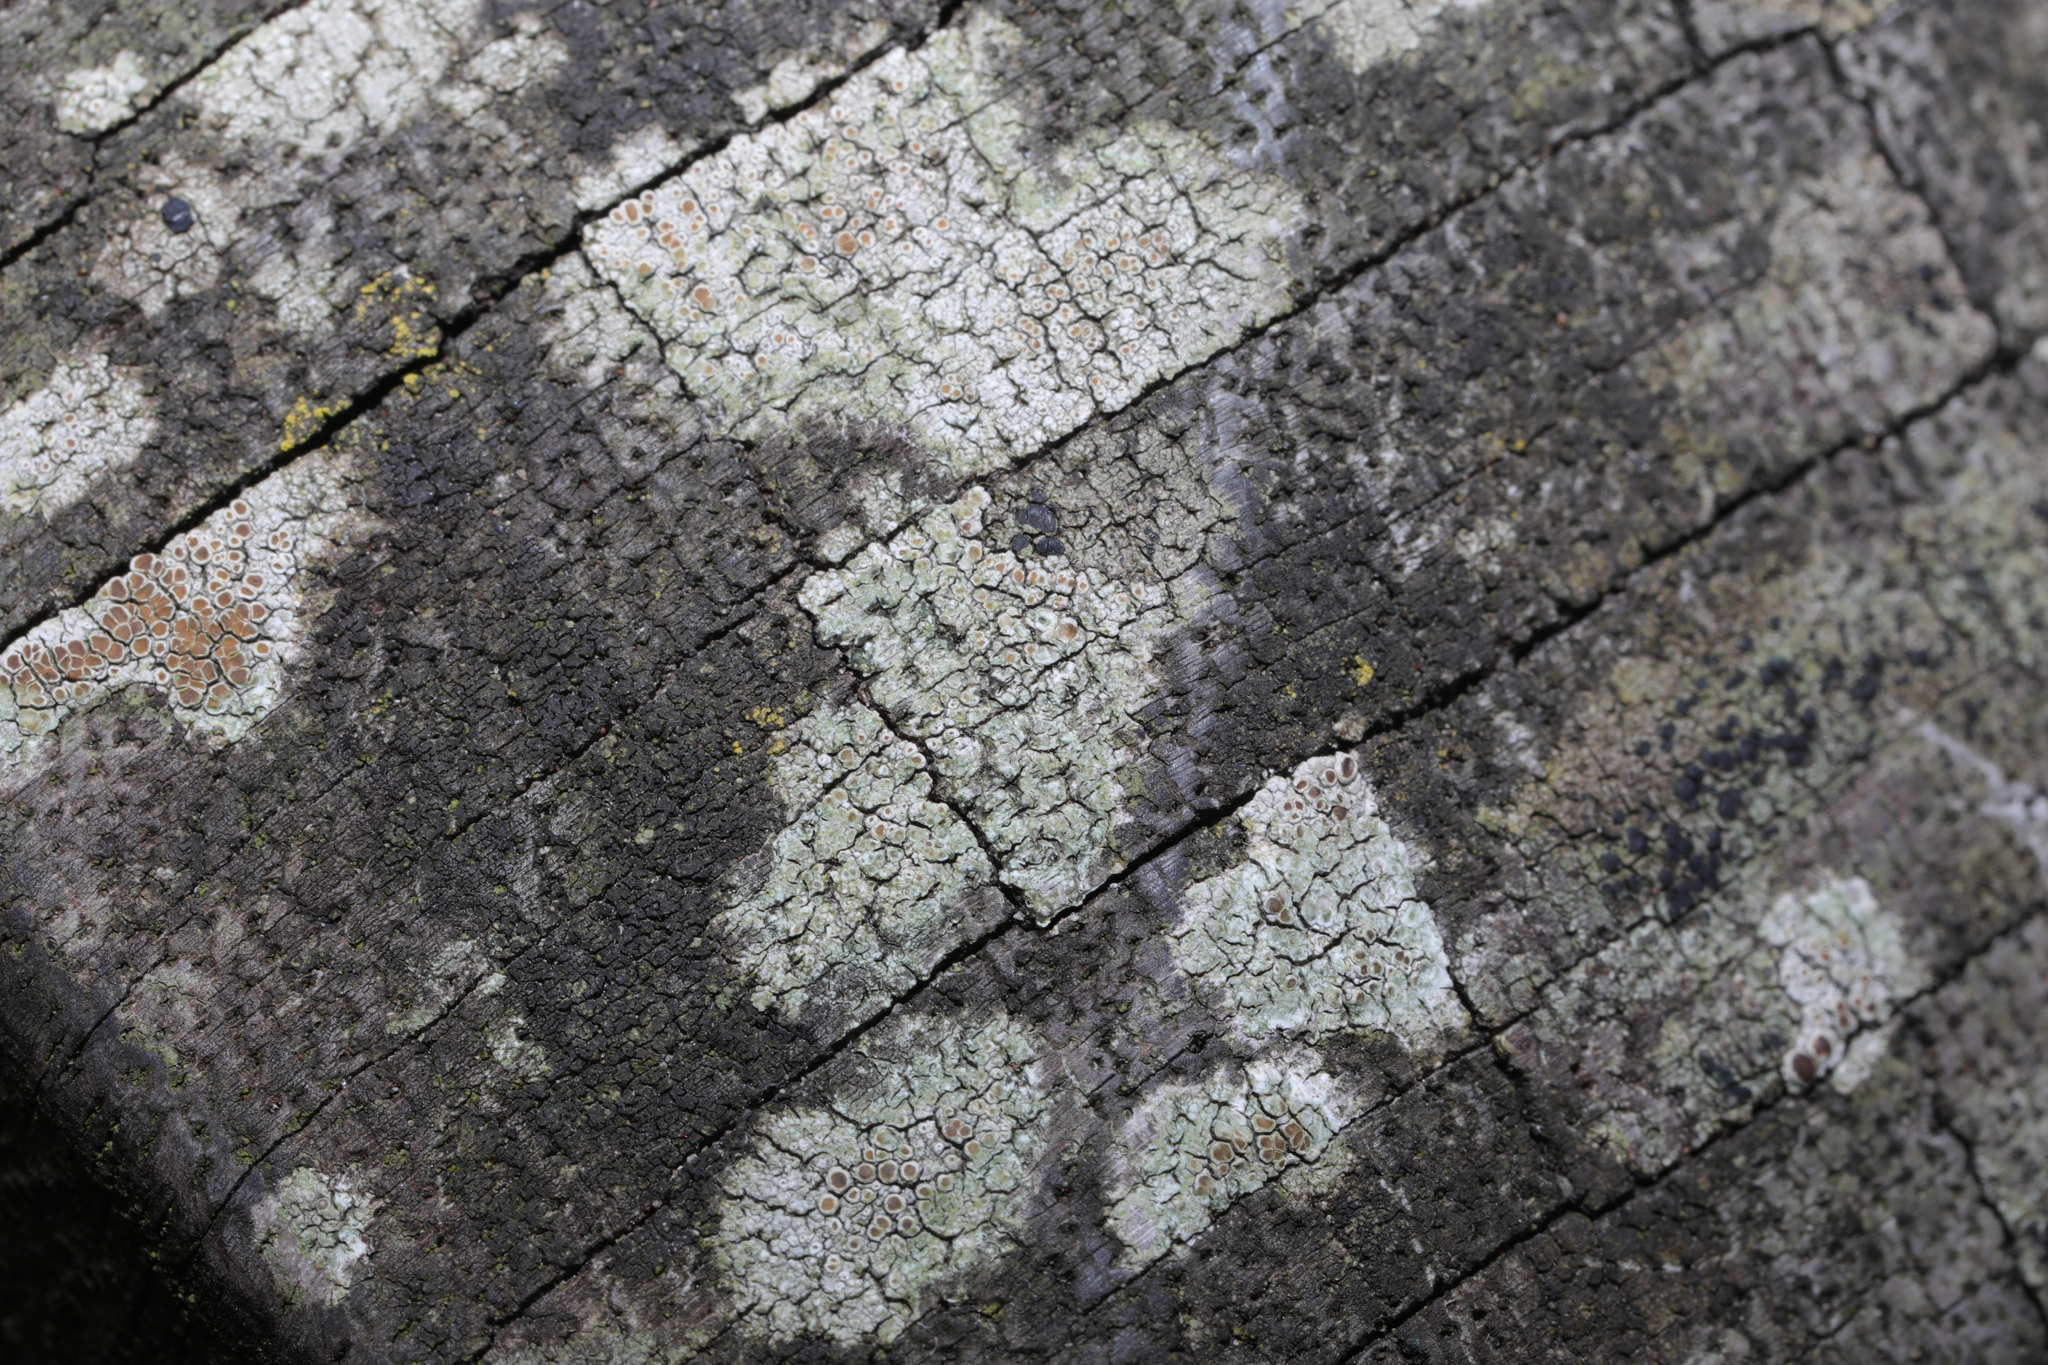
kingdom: Fungi
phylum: Ascomycota
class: Lecanoromycetes
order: Lecanorales
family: Lecanoraceae
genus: Lecanora
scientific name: Lecanora
